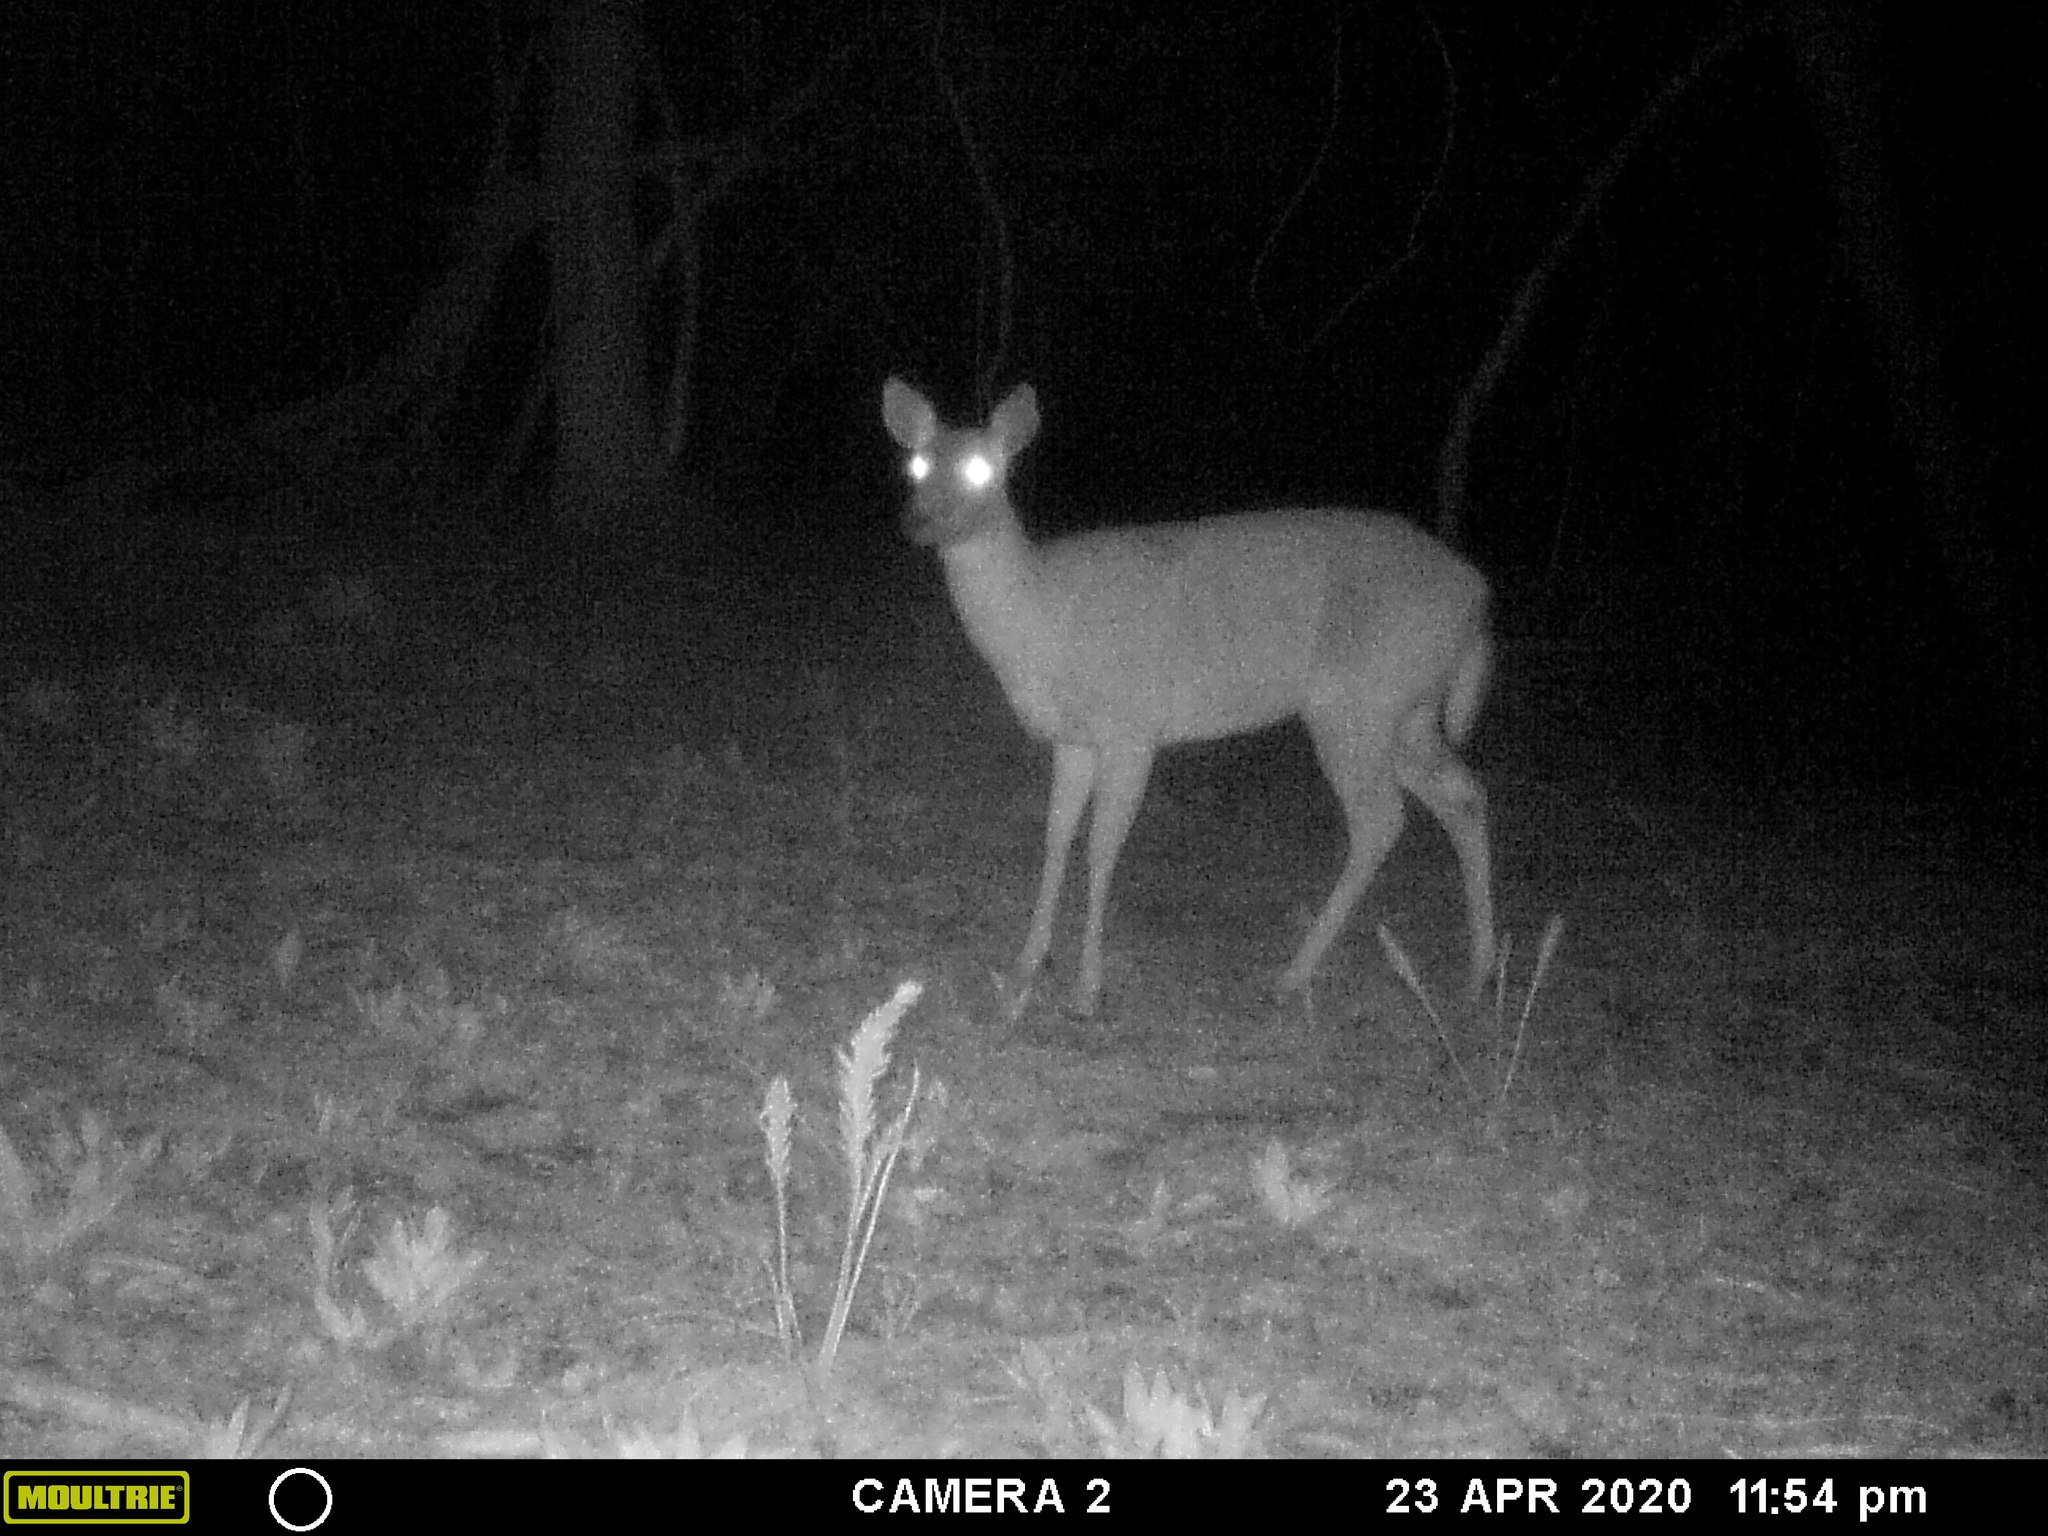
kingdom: Animalia
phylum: Chordata
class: Mammalia
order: Artiodactyla
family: Cervidae
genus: Odocoileus
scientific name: Odocoileus virginianus
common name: White-tailed deer
